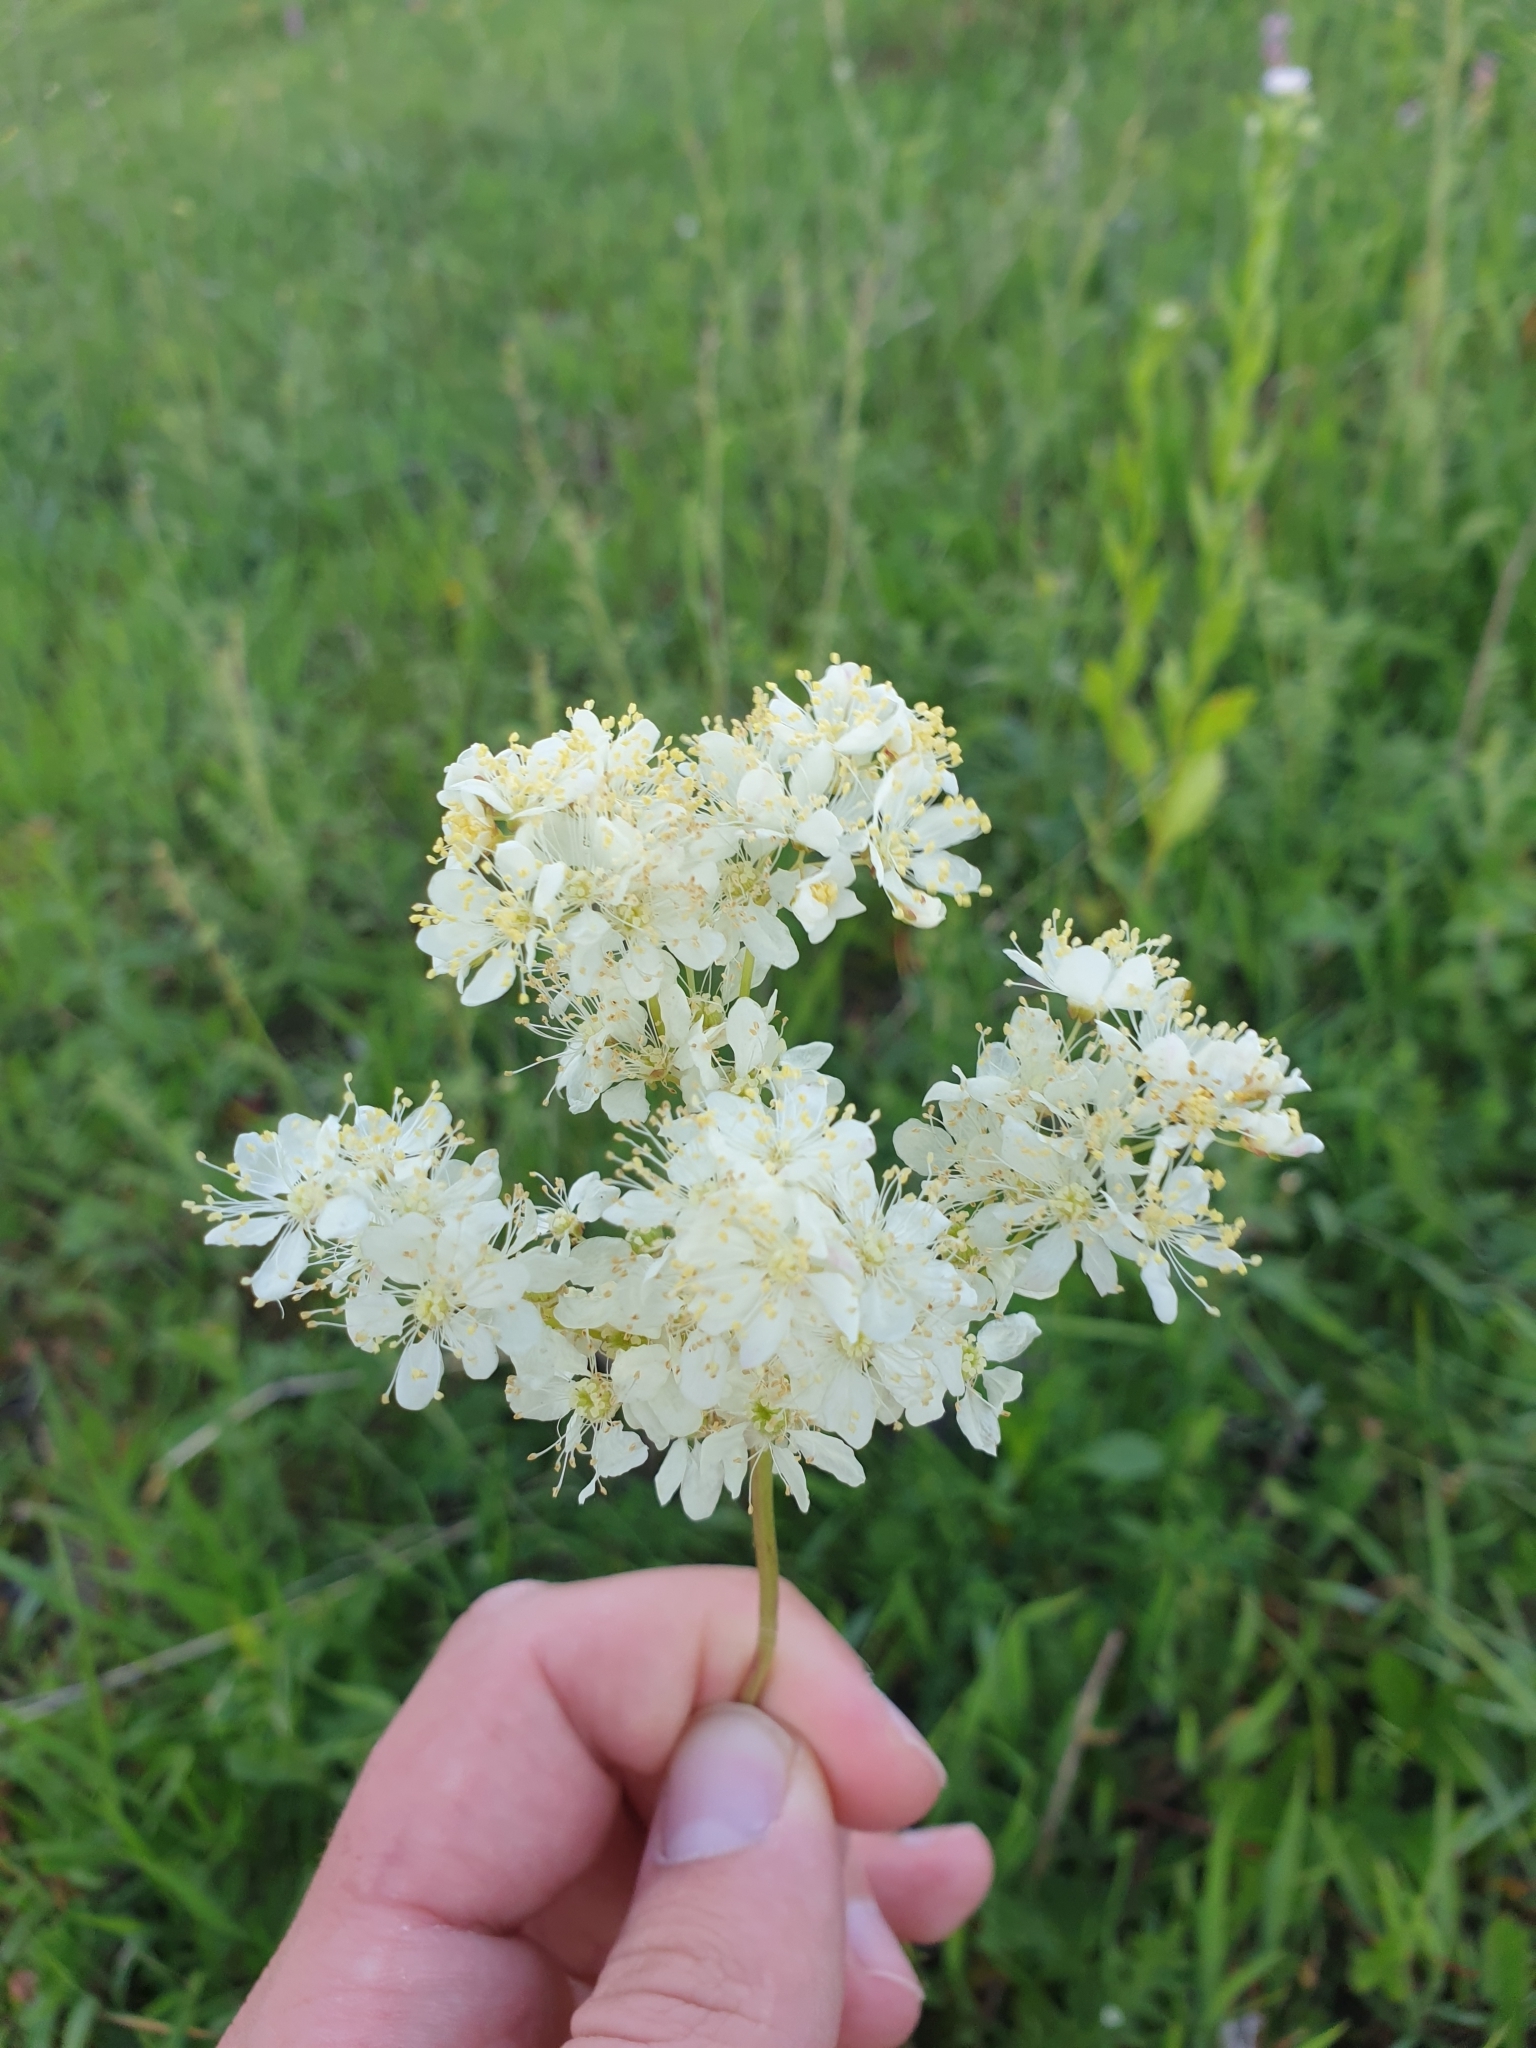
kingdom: Plantae
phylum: Tracheophyta
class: Magnoliopsida
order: Rosales
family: Rosaceae
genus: Filipendula
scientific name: Filipendula vulgaris
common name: Dropwort
